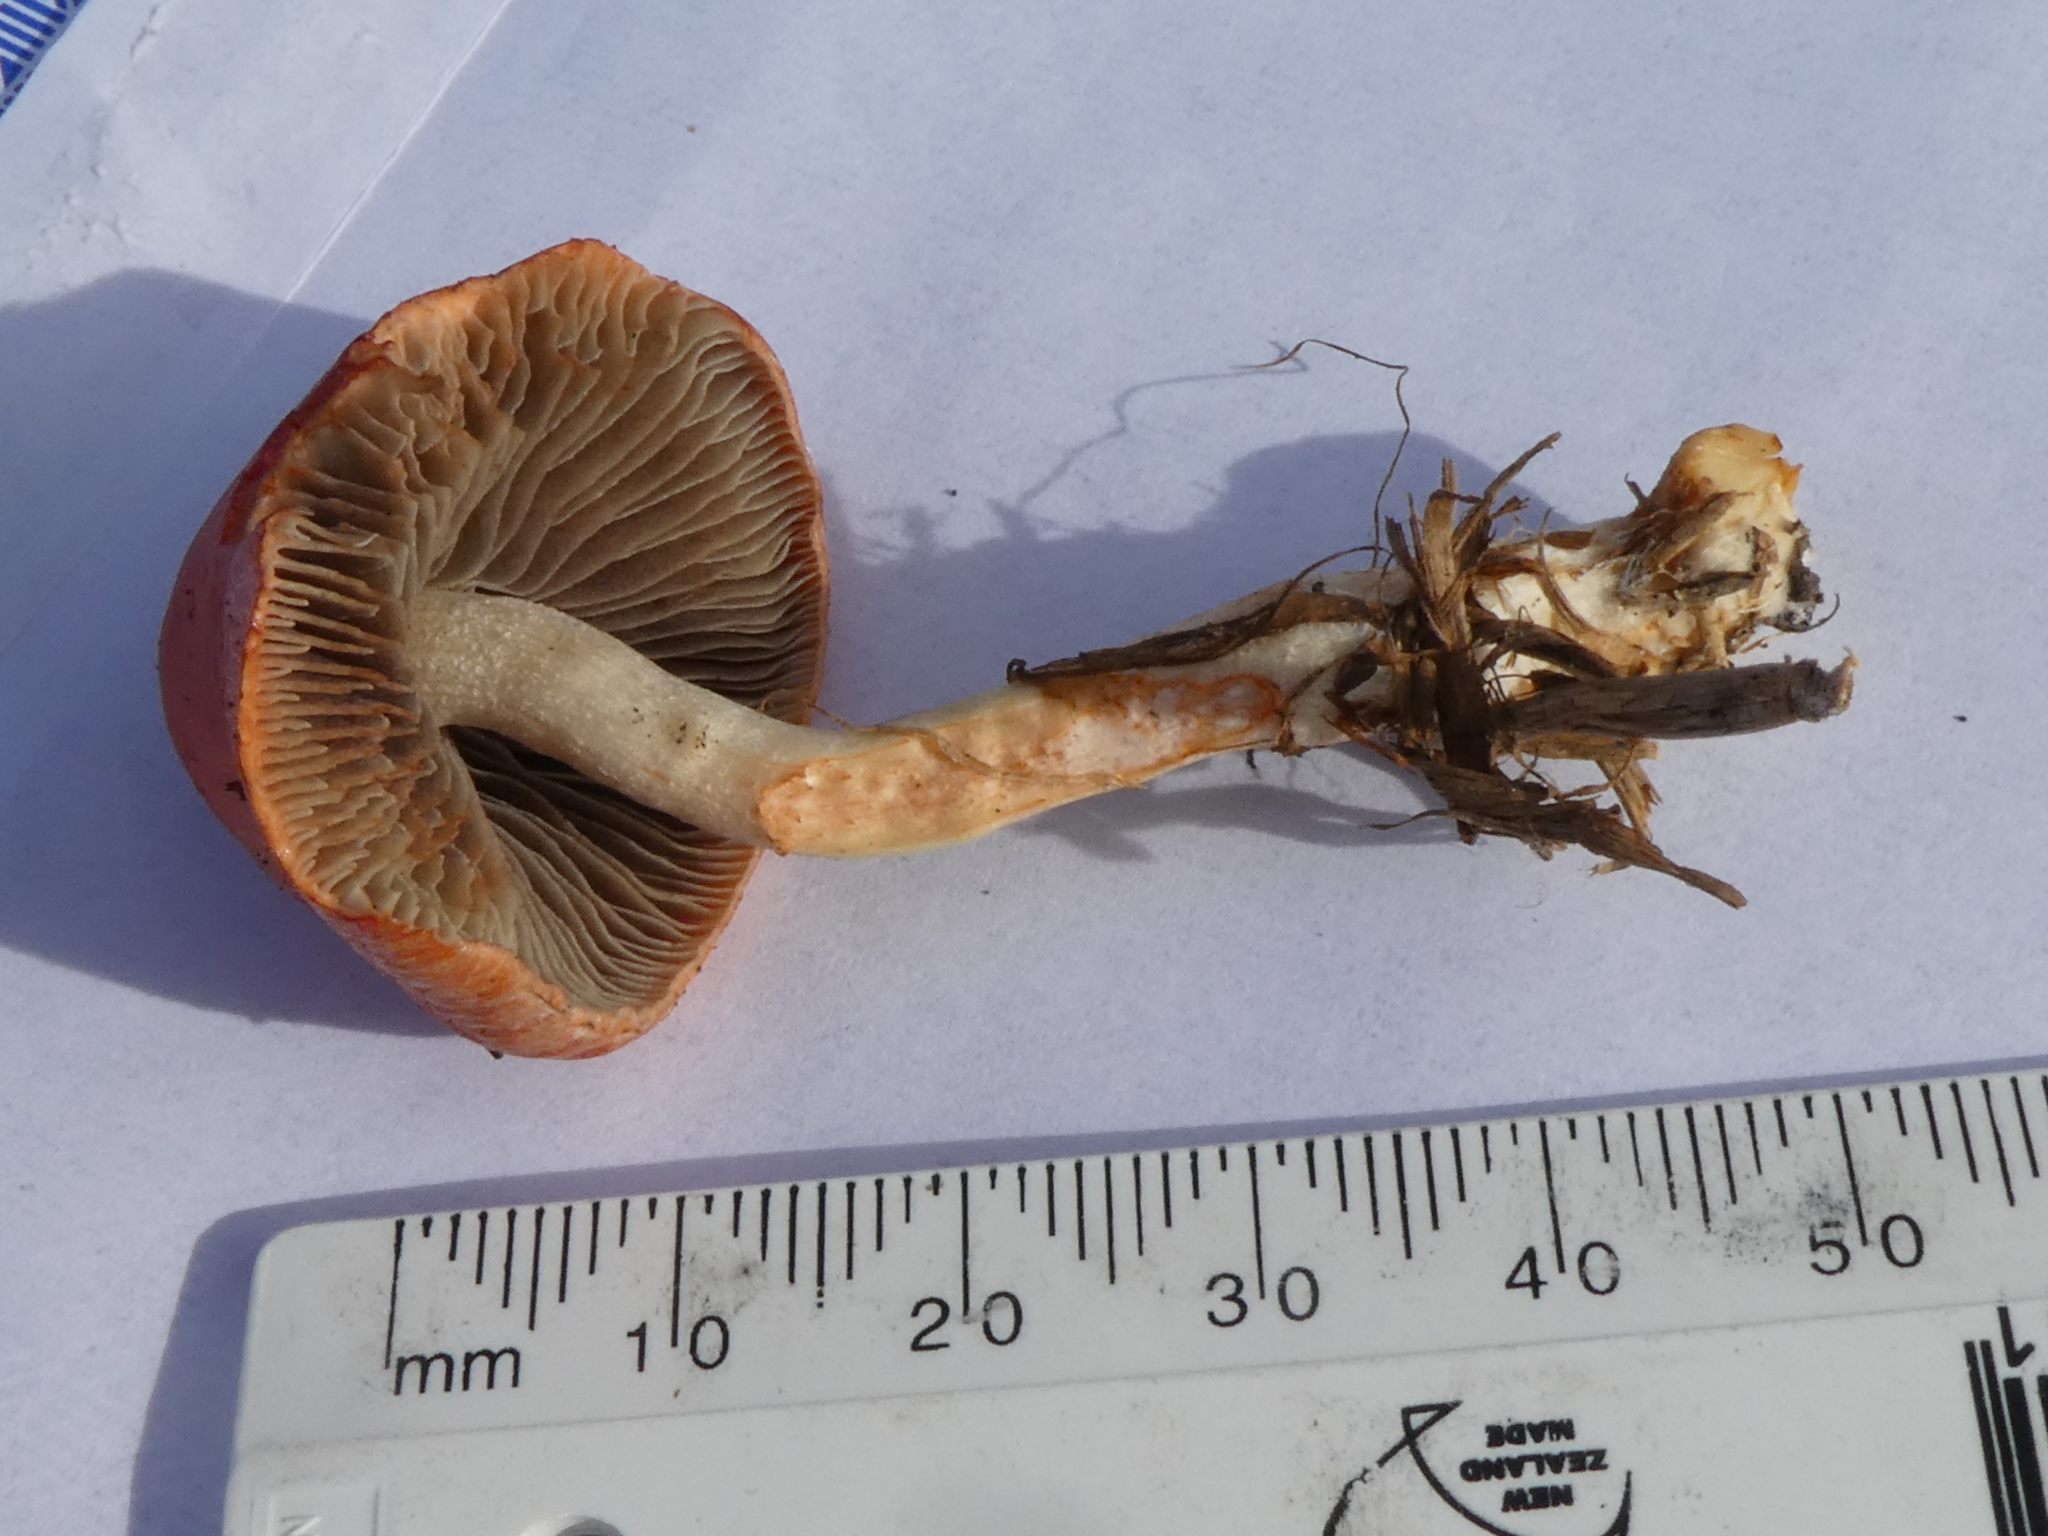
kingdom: Fungi
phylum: Basidiomycota
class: Agaricomycetes
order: Agaricales
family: Strophariaceae
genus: Leratiomyces
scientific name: Leratiomyces ceres
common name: Redlead roundhead
